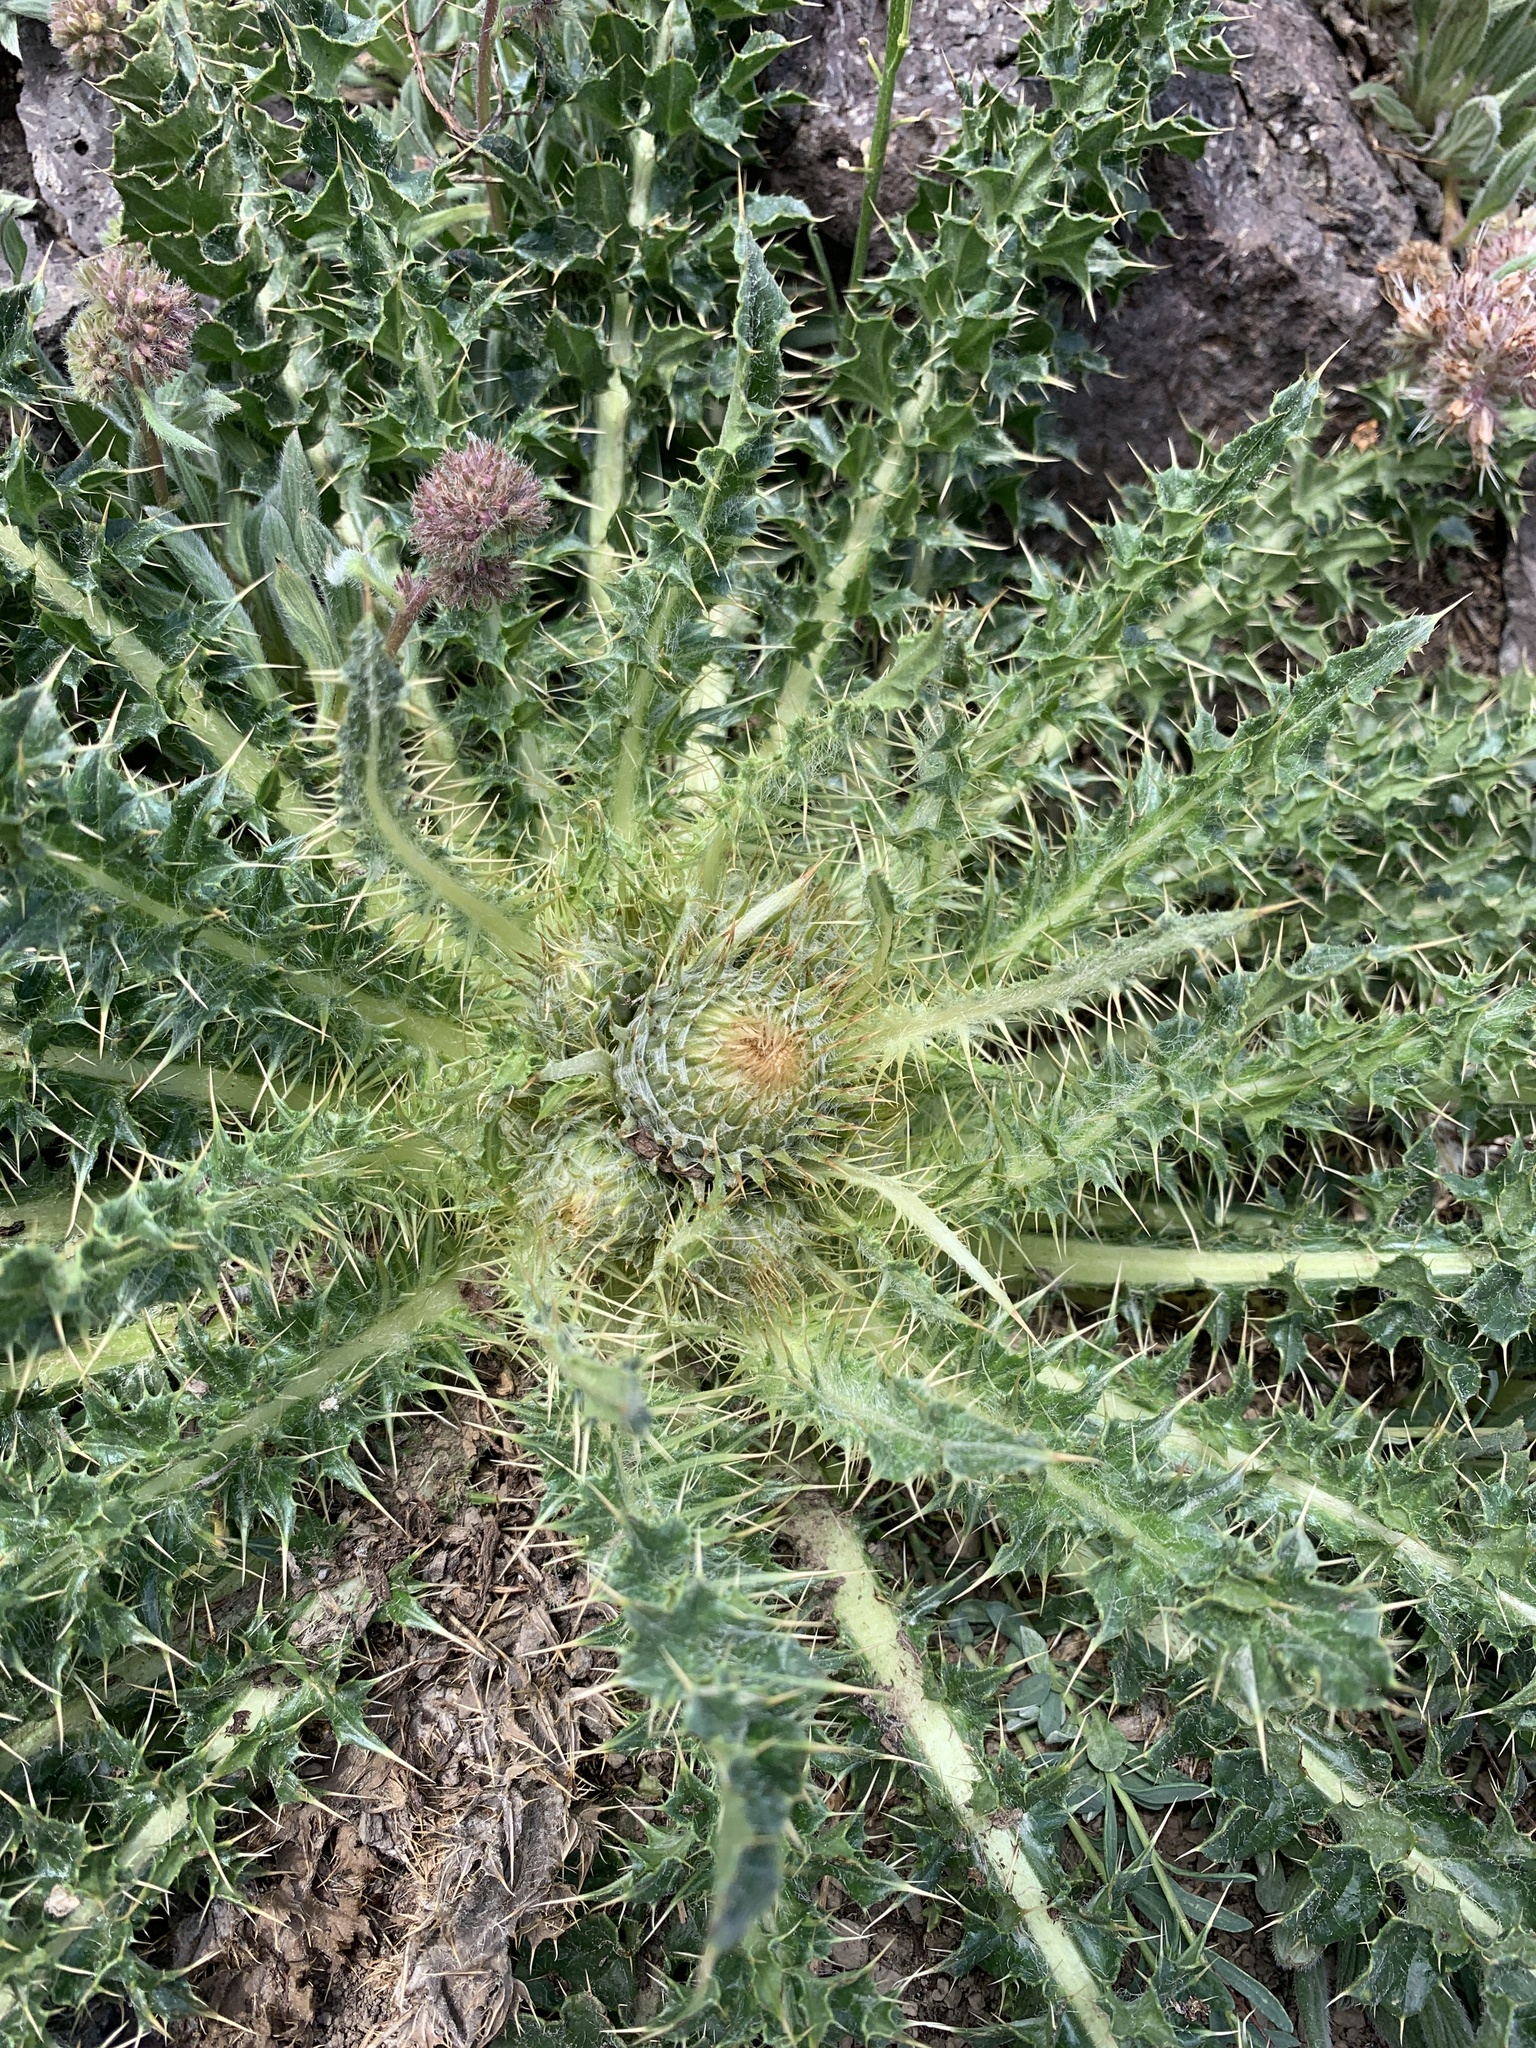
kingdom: Plantae
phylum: Tracheophyta
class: Magnoliopsida
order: Asterales
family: Asteraceae
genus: Cirsium
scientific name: Cirsium scariosum
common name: Meadow thistle
